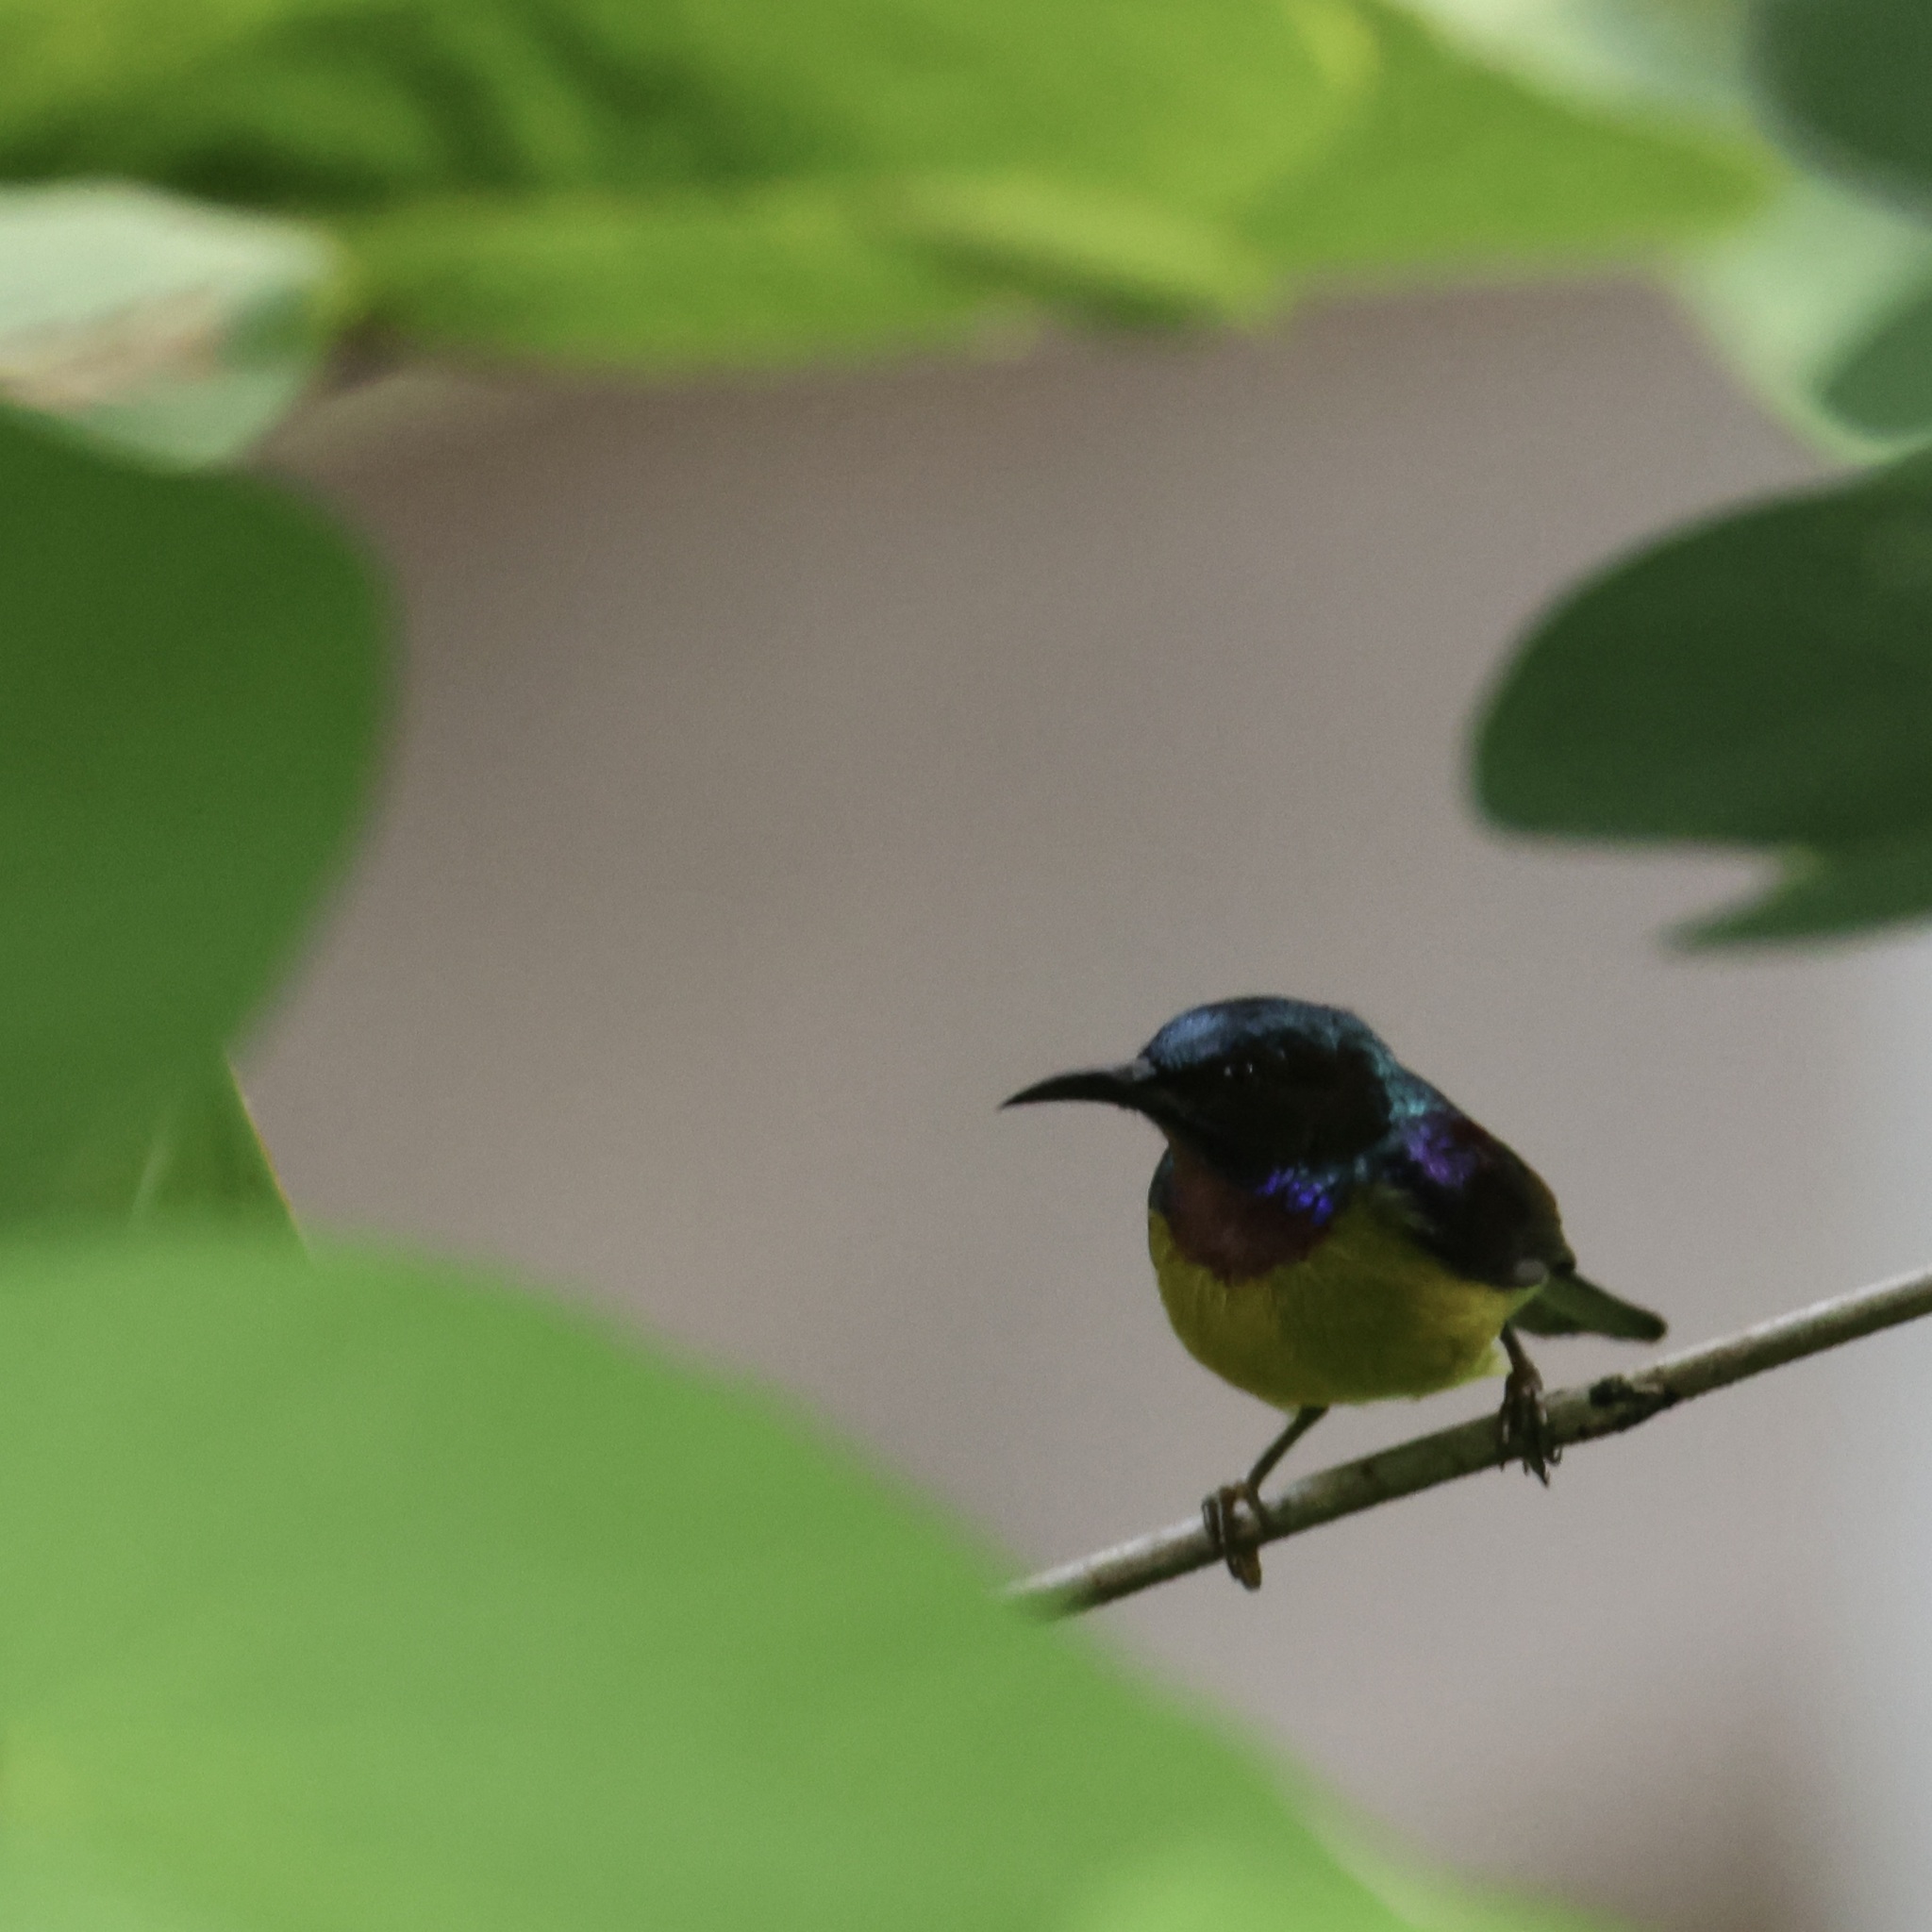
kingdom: Animalia
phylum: Chordata
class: Aves
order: Passeriformes
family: Nectariniidae
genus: Anthreptes
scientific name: Anthreptes malacensis
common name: Brown-throated sunbird
